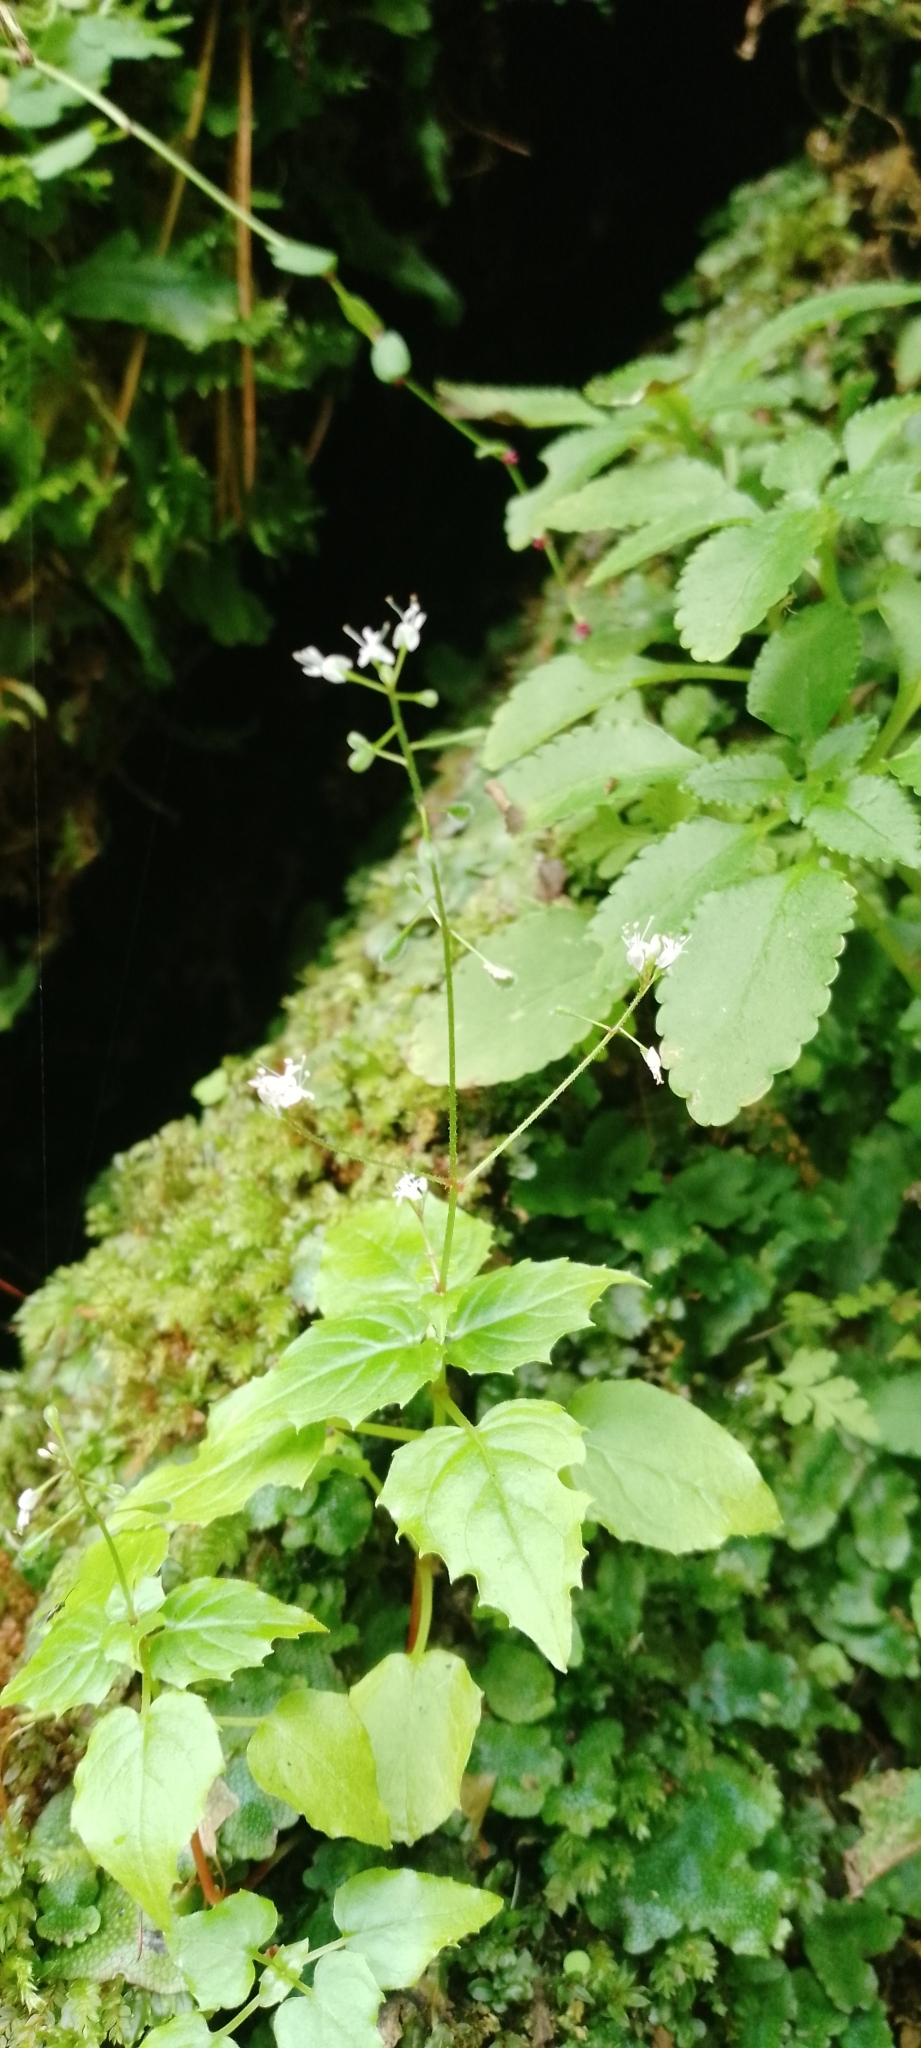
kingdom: Plantae
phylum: Tracheophyta
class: Magnoliopsida
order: Myrtales
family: Onagraceae
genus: Circaea
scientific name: Circaea alpina
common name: Alpine enchanter's-nightshade
